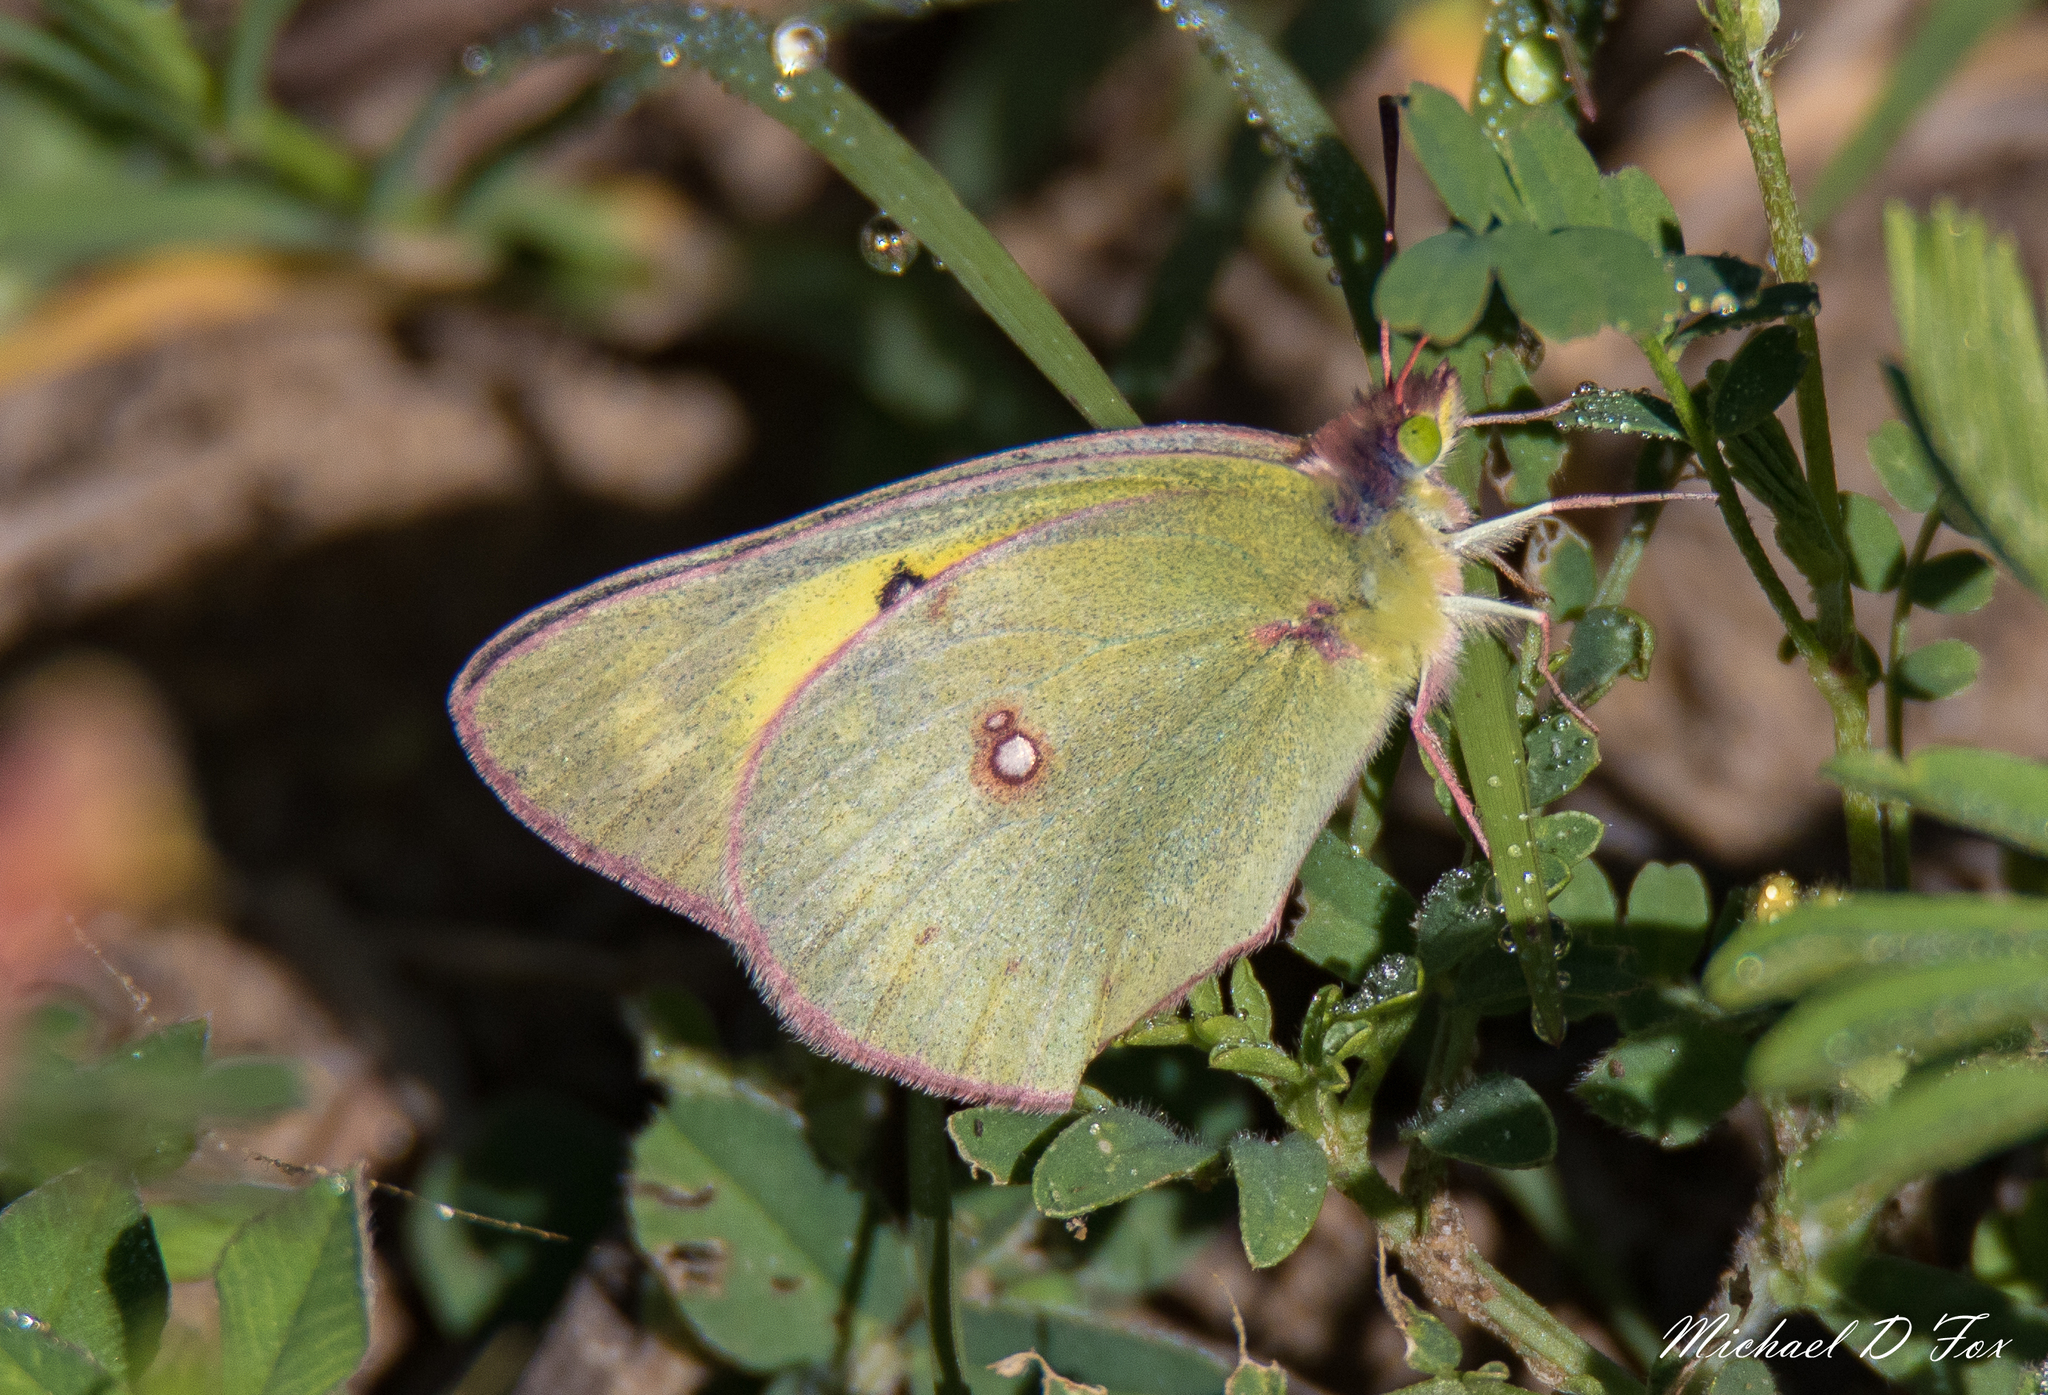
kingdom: Animalia
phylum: Arthropoda
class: Insecta
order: Lepidoptera
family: Pieridae
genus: Colias
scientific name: Colias eurytheme
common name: Alfalfa butterfly
